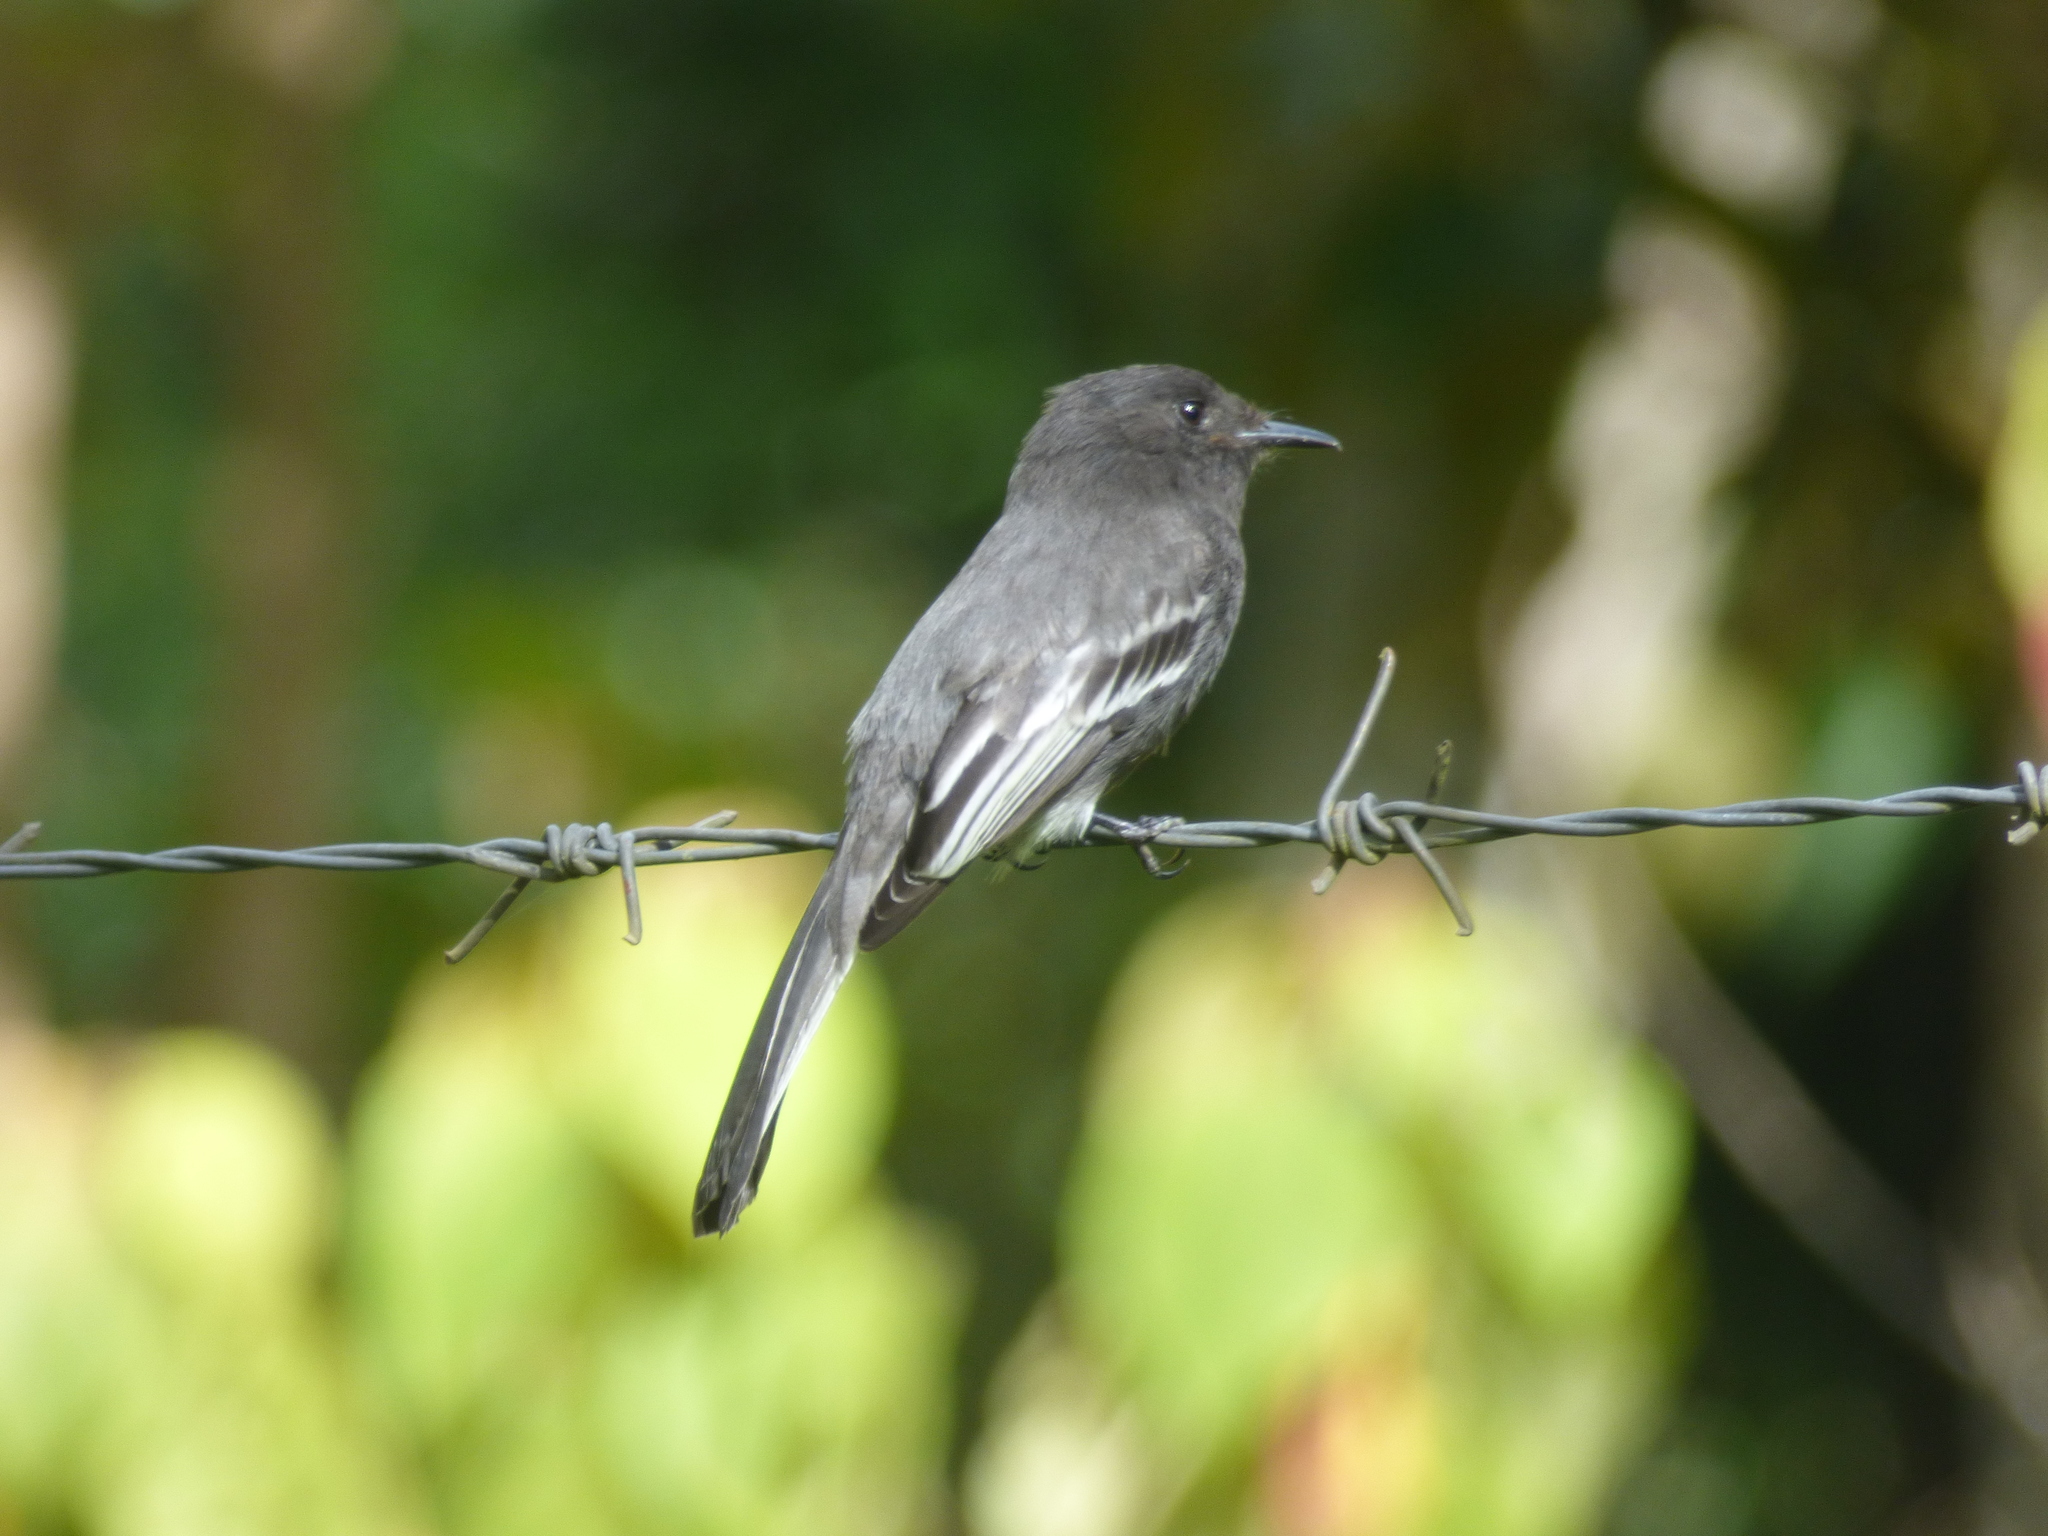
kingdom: Animalia
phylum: Chordata
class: Aves
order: Passeriformes
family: Tyrannidae
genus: Sayornis
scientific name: Sayornis nigricans
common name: Black phoebe
